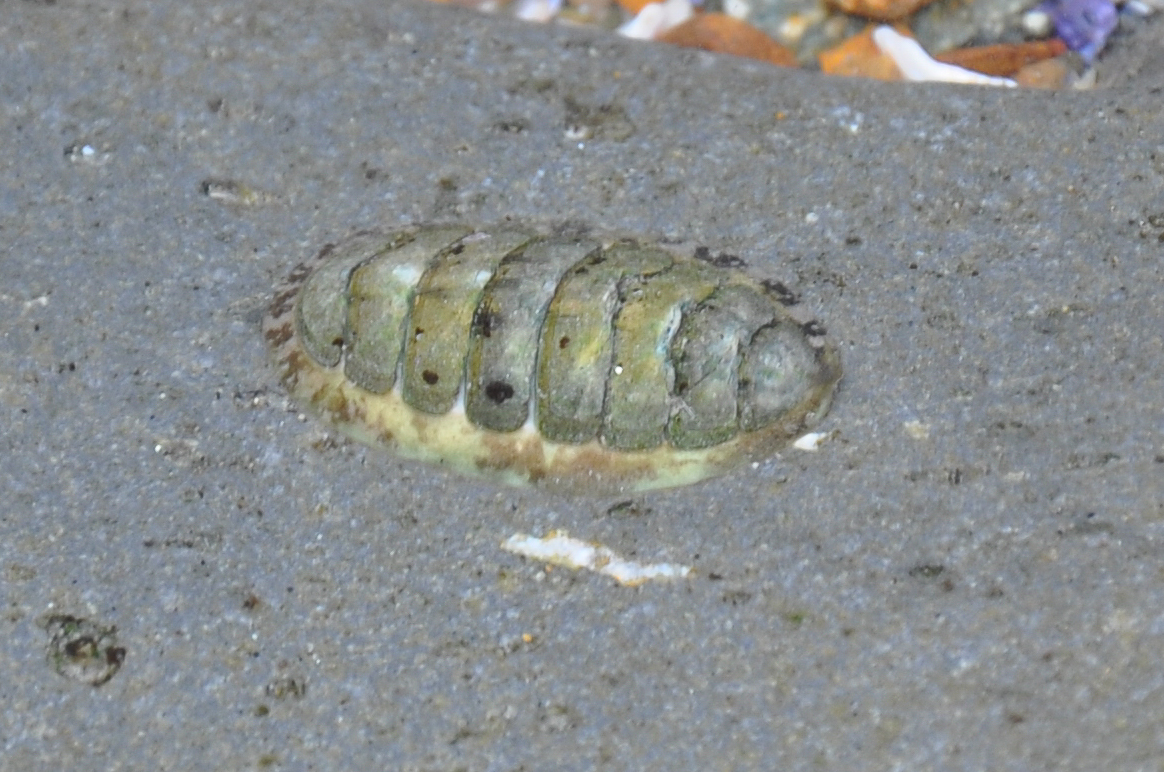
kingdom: Animalia
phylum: Mollusca
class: Polyplacophora
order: Chitonida
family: Tonicellidae
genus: Cyanoplax
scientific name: Cyanoplax hartwegii
